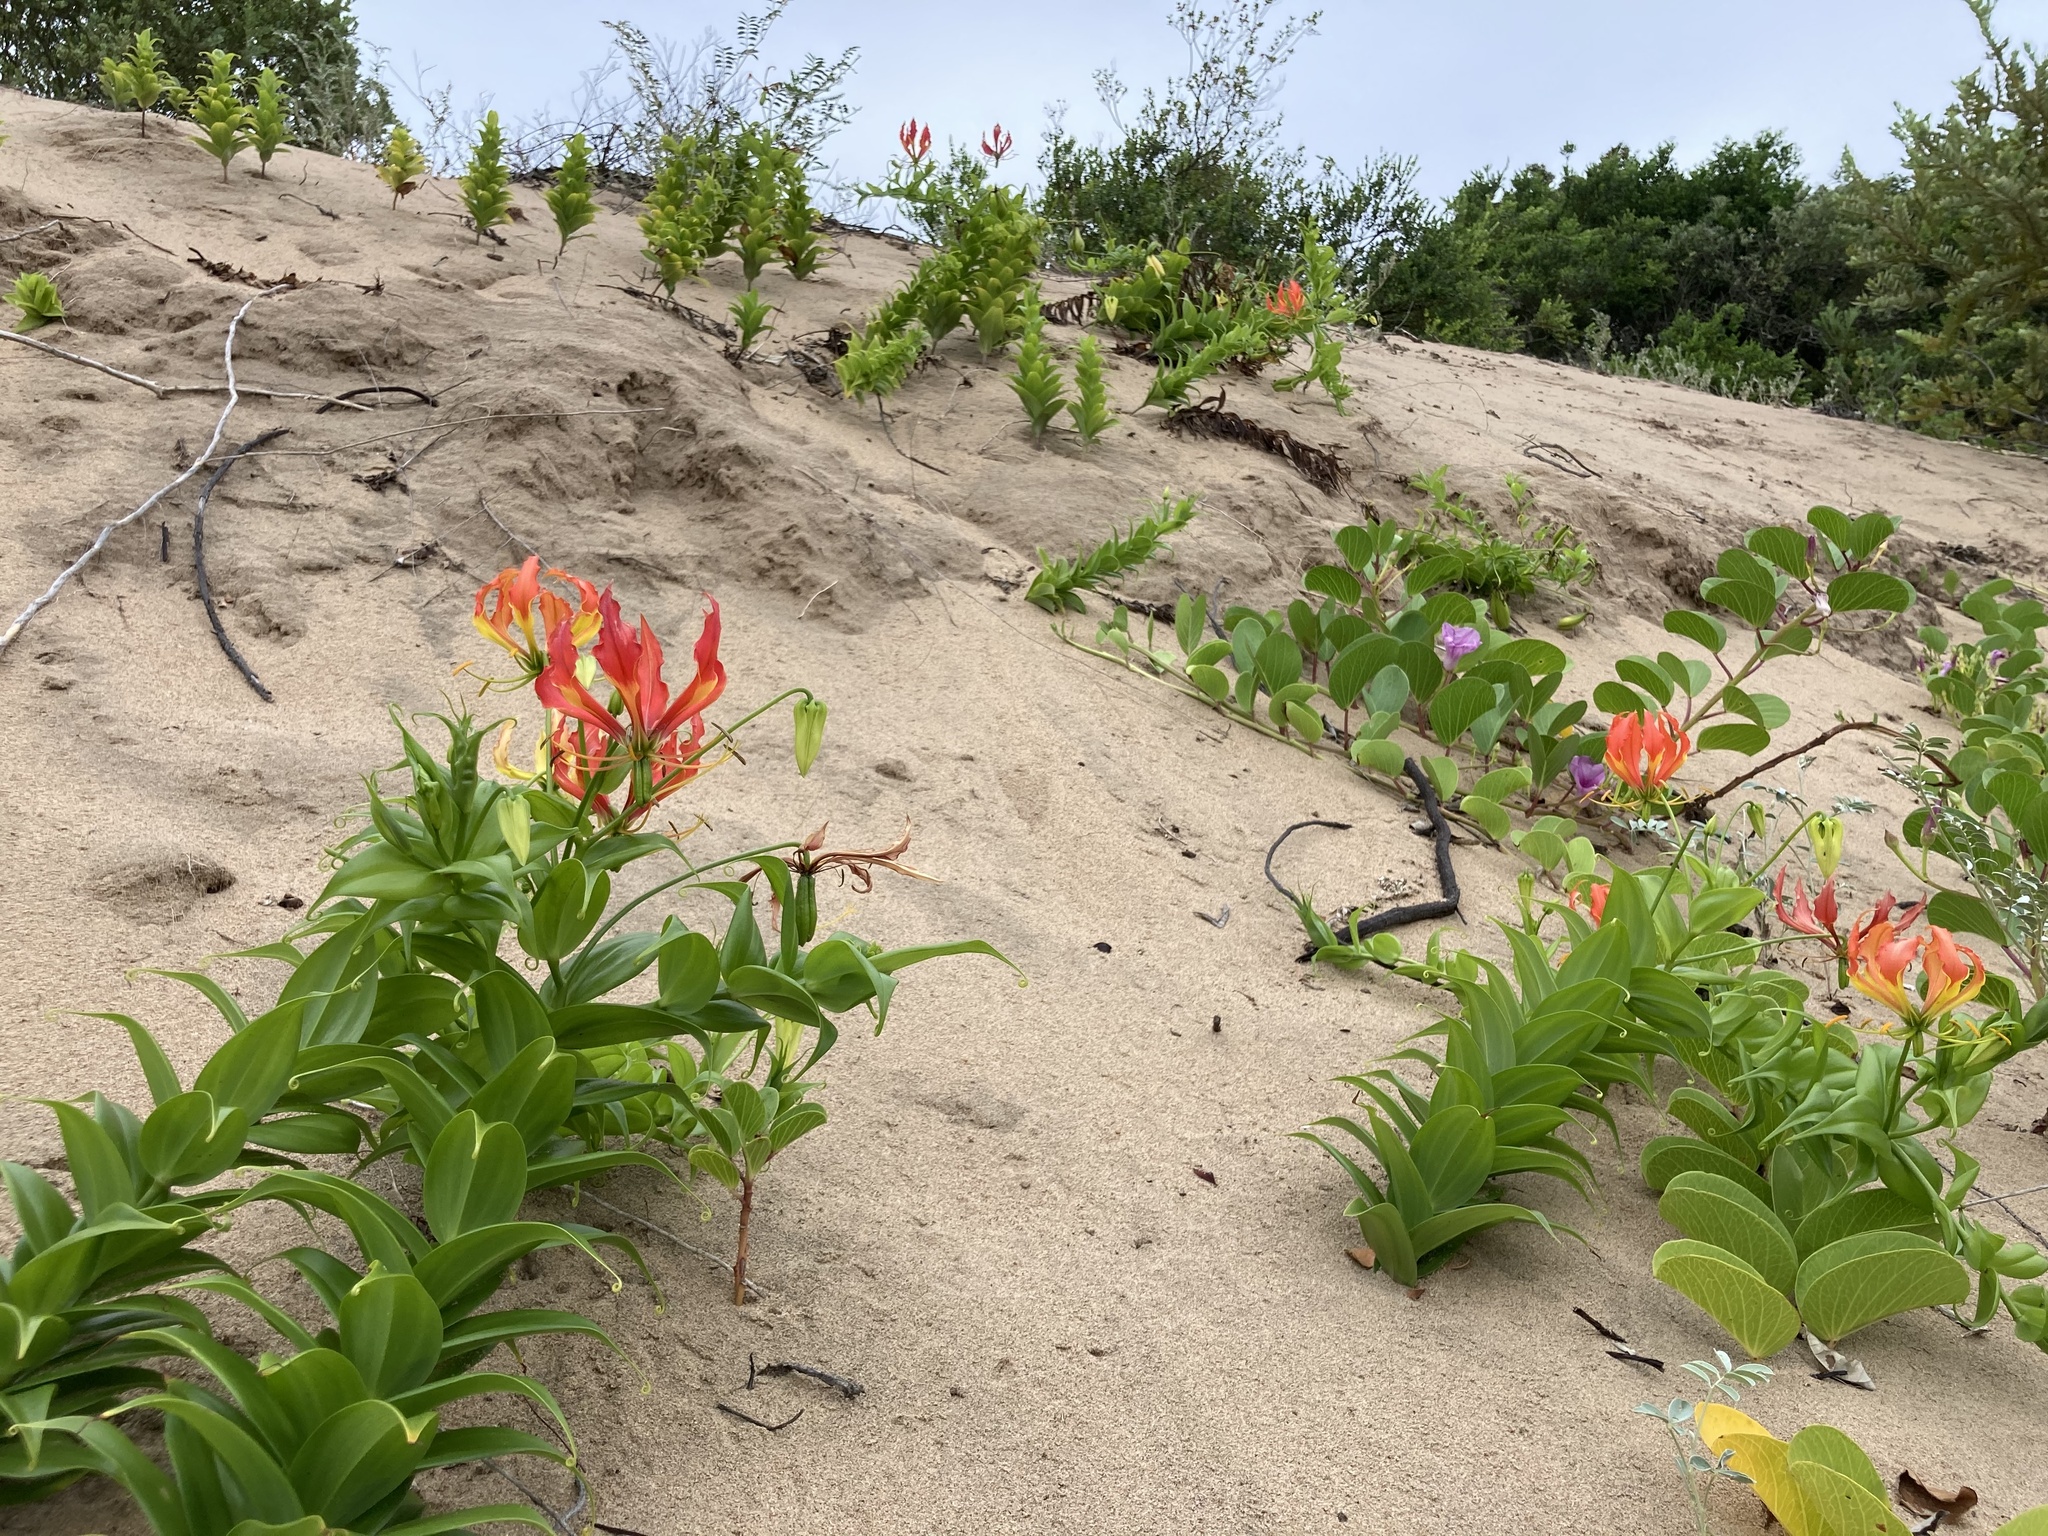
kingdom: Plantae
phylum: Tracheophyta
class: Liliopsida
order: Liliales
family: Colchicaceae
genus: Gloriosa
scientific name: Gloriosa superba
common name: Flame lily
